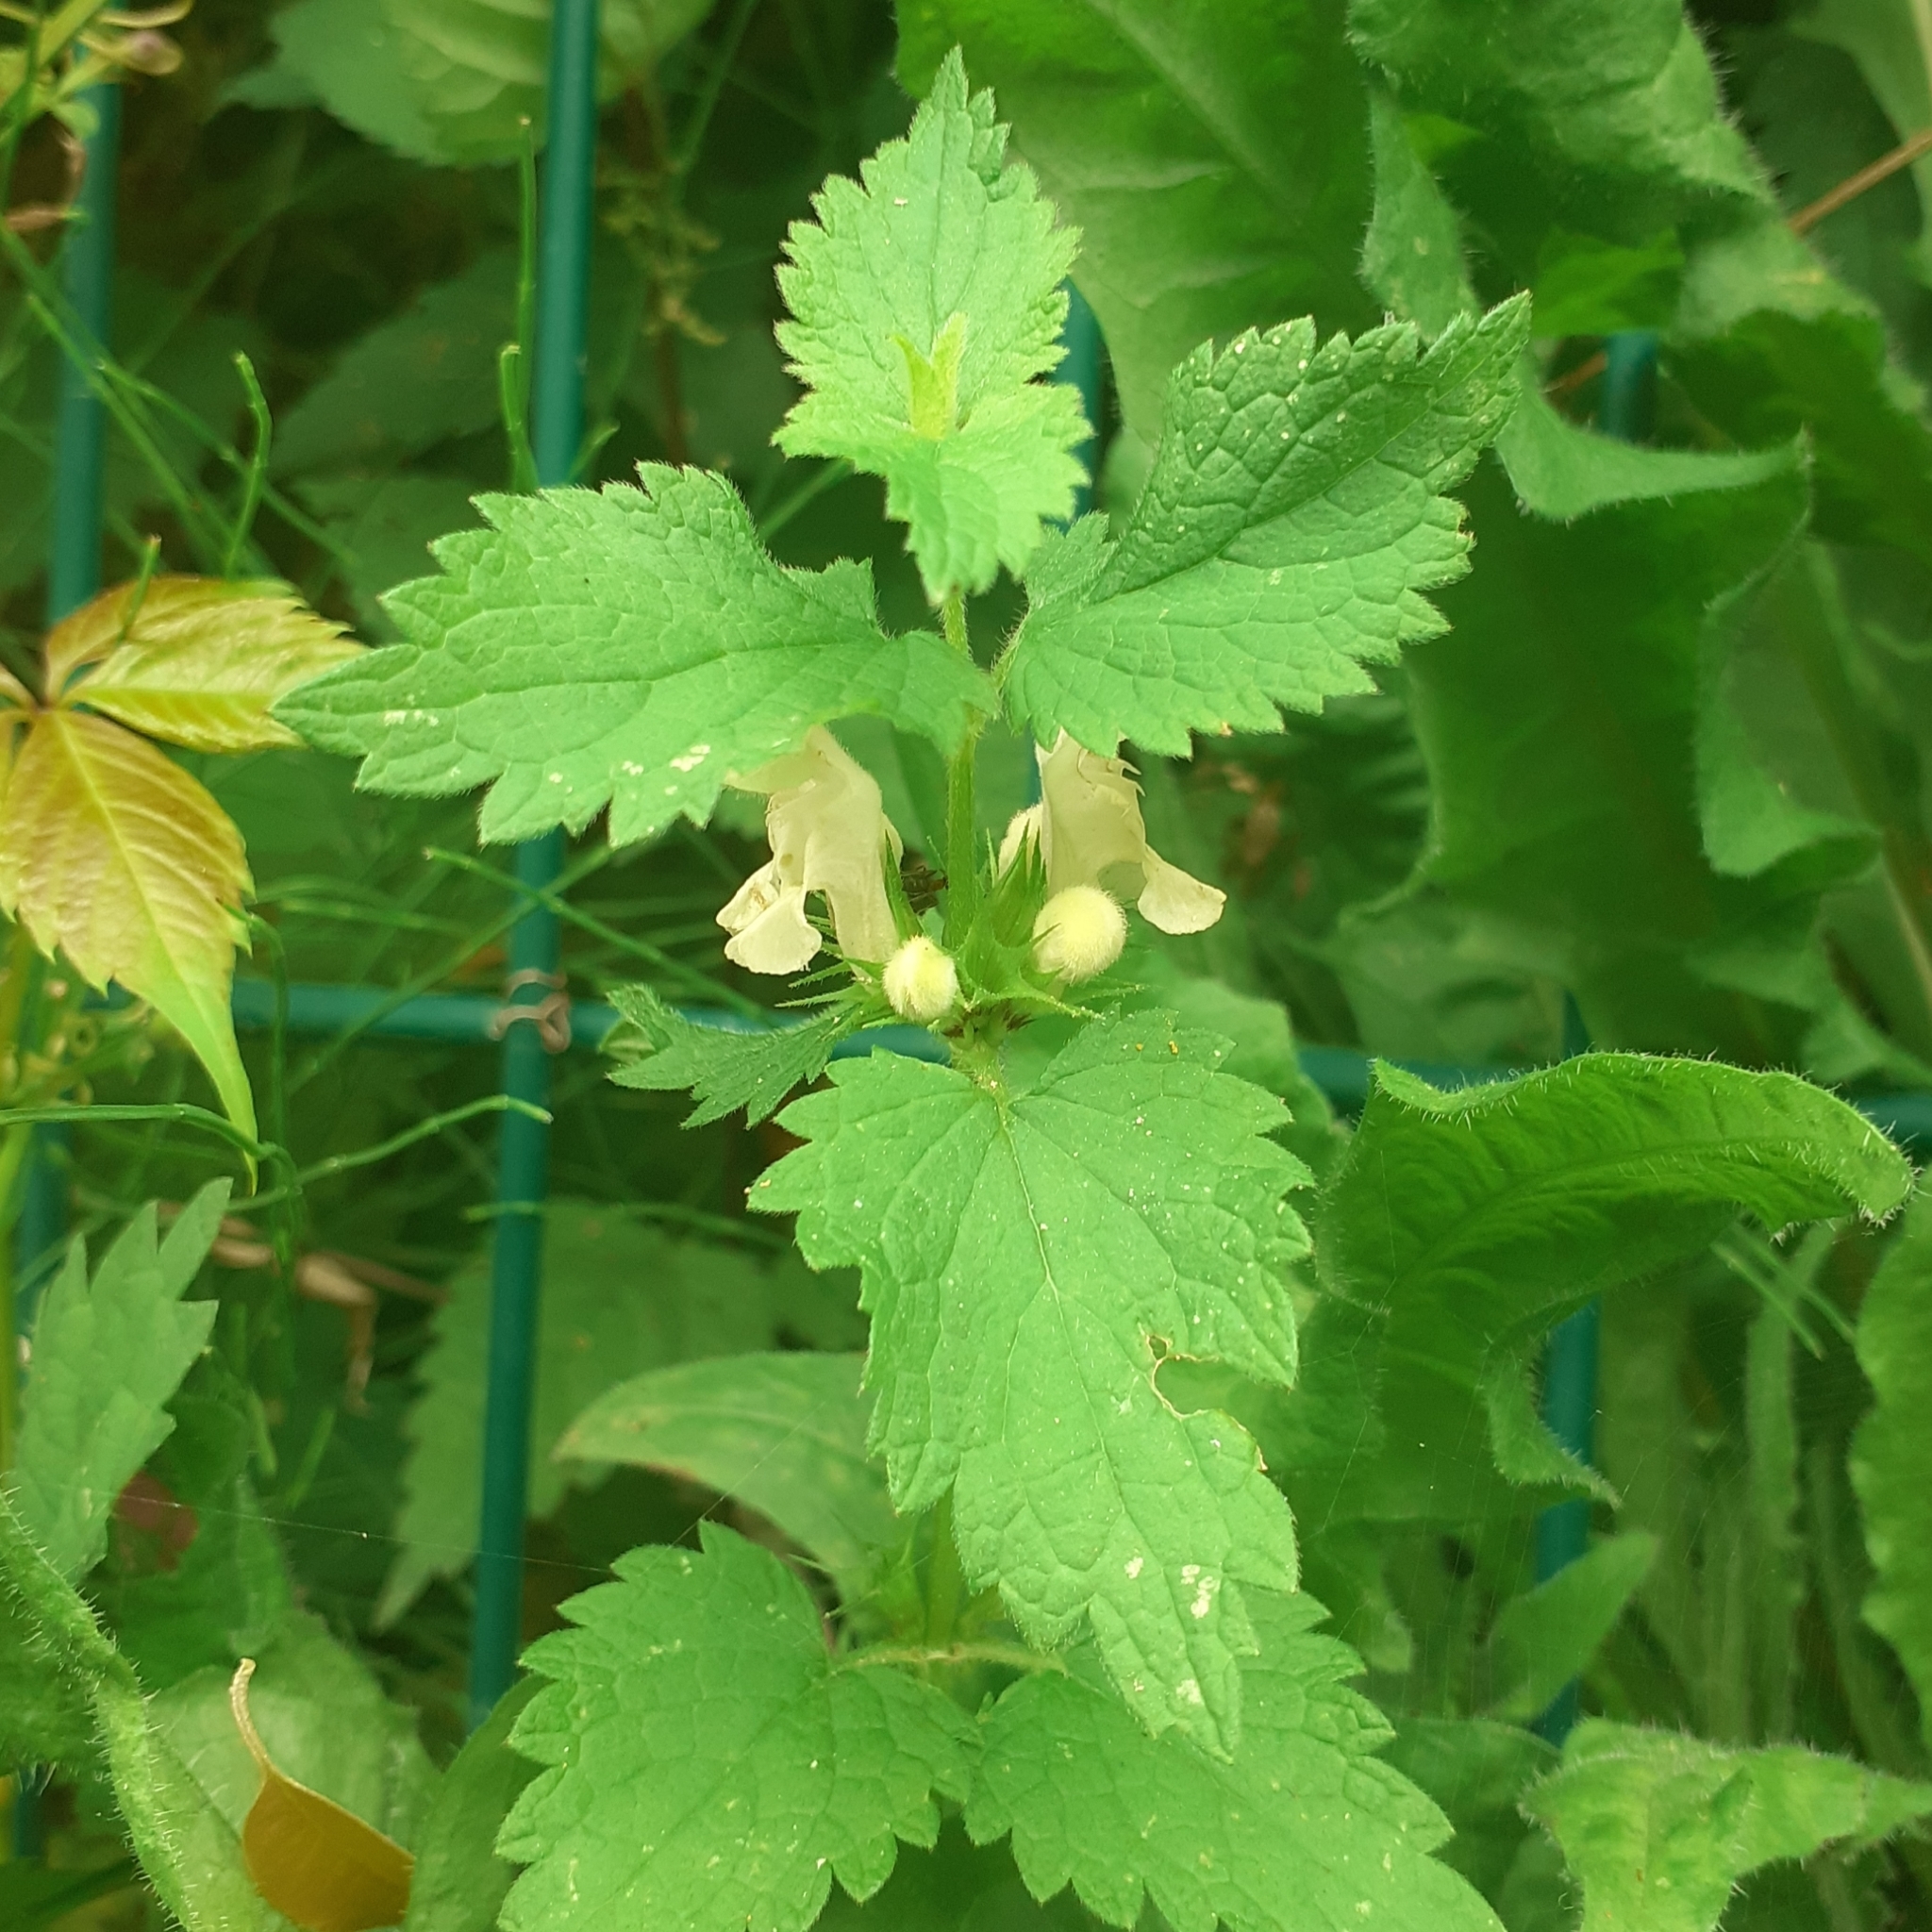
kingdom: Plantae
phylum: Tracheophyta
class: Magnoliopsida
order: Lamiales
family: Lamiaceae
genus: Lamium
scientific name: Lamium album
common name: White dead-nettle
